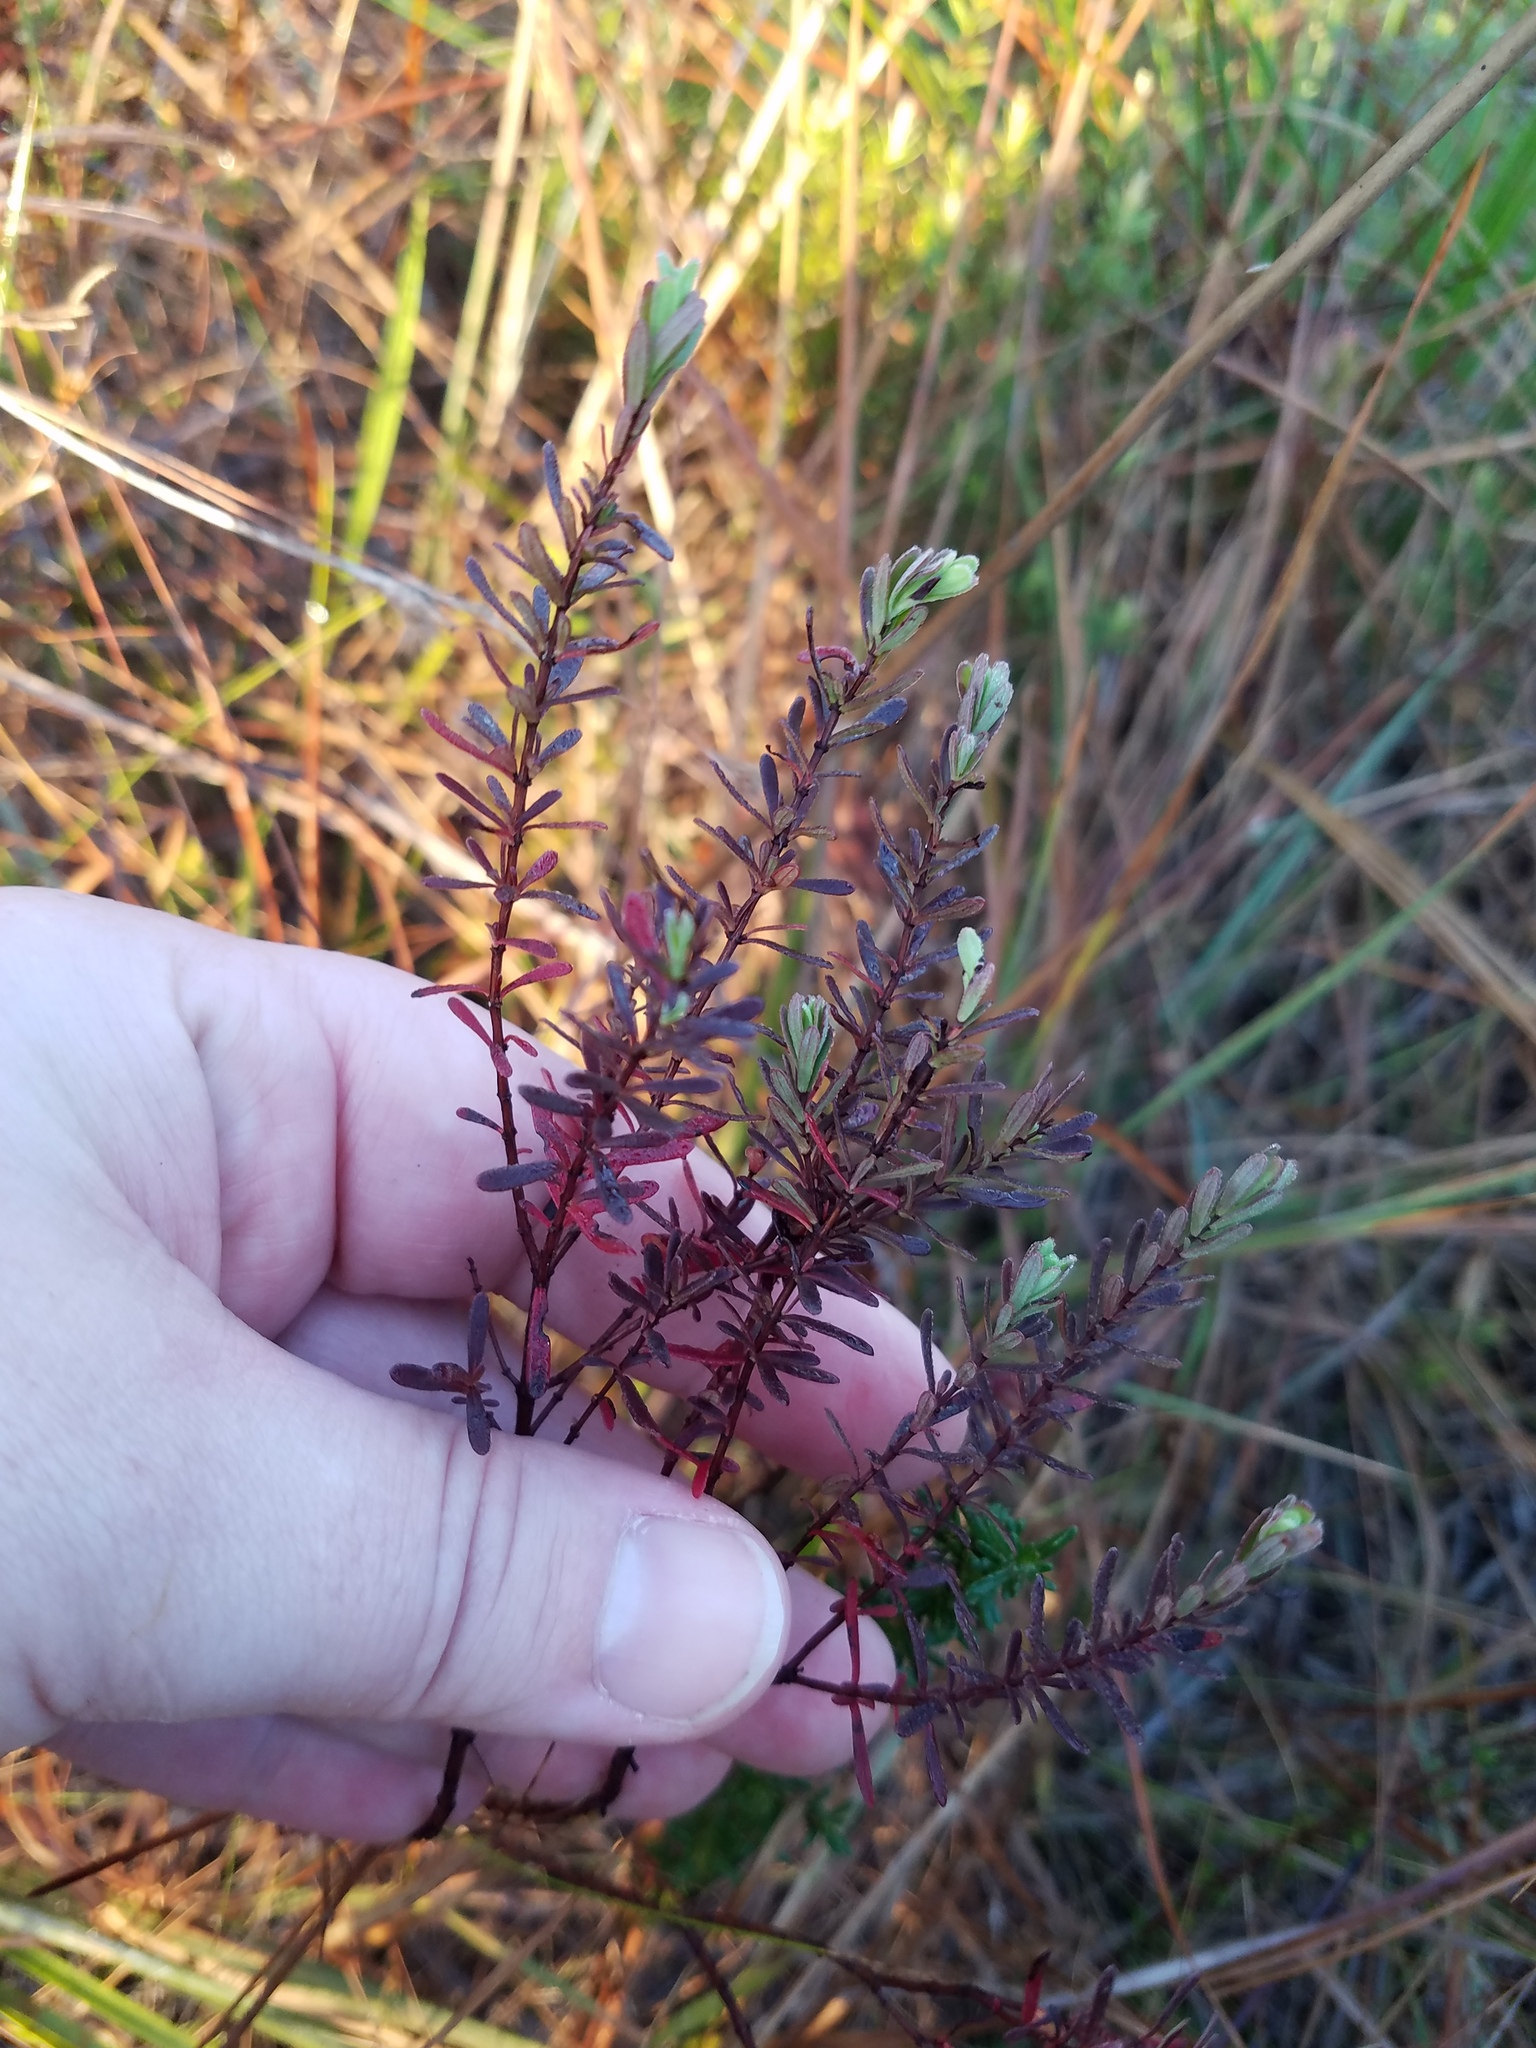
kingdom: Plantae
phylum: Tracheophyta
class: Magnoliopsida
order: Malpighiales
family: Hypericaceae
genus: Hypericum
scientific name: Hypericum microsepalum
